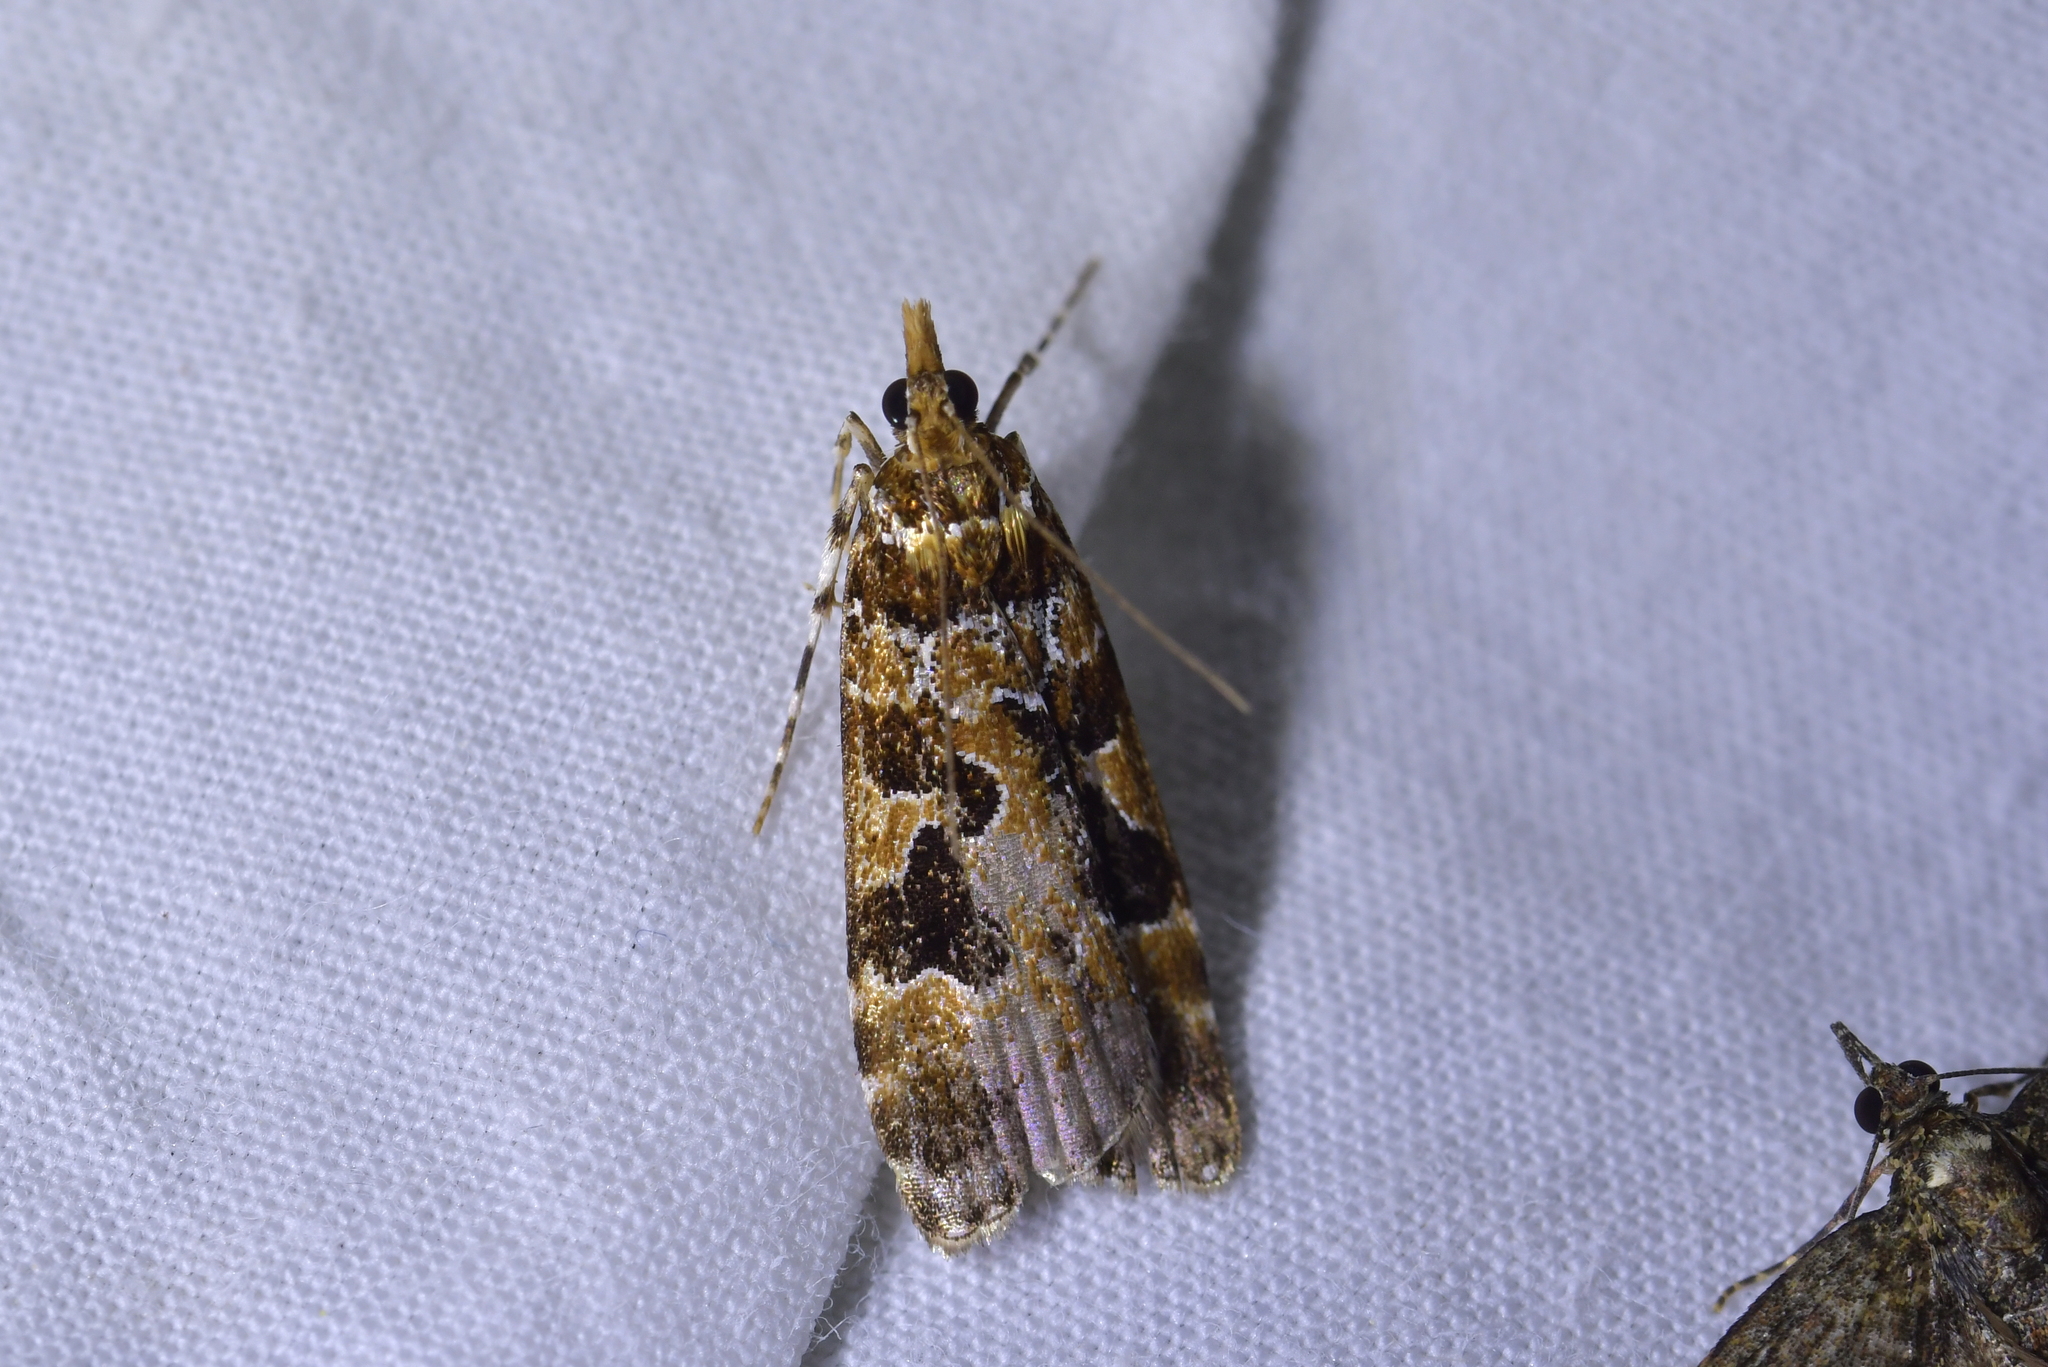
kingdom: Animalia
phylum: Arthropoda
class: Insecta
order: Lepidoptera
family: Crambidae
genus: Scoparia
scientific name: Scoparia ustimacula
